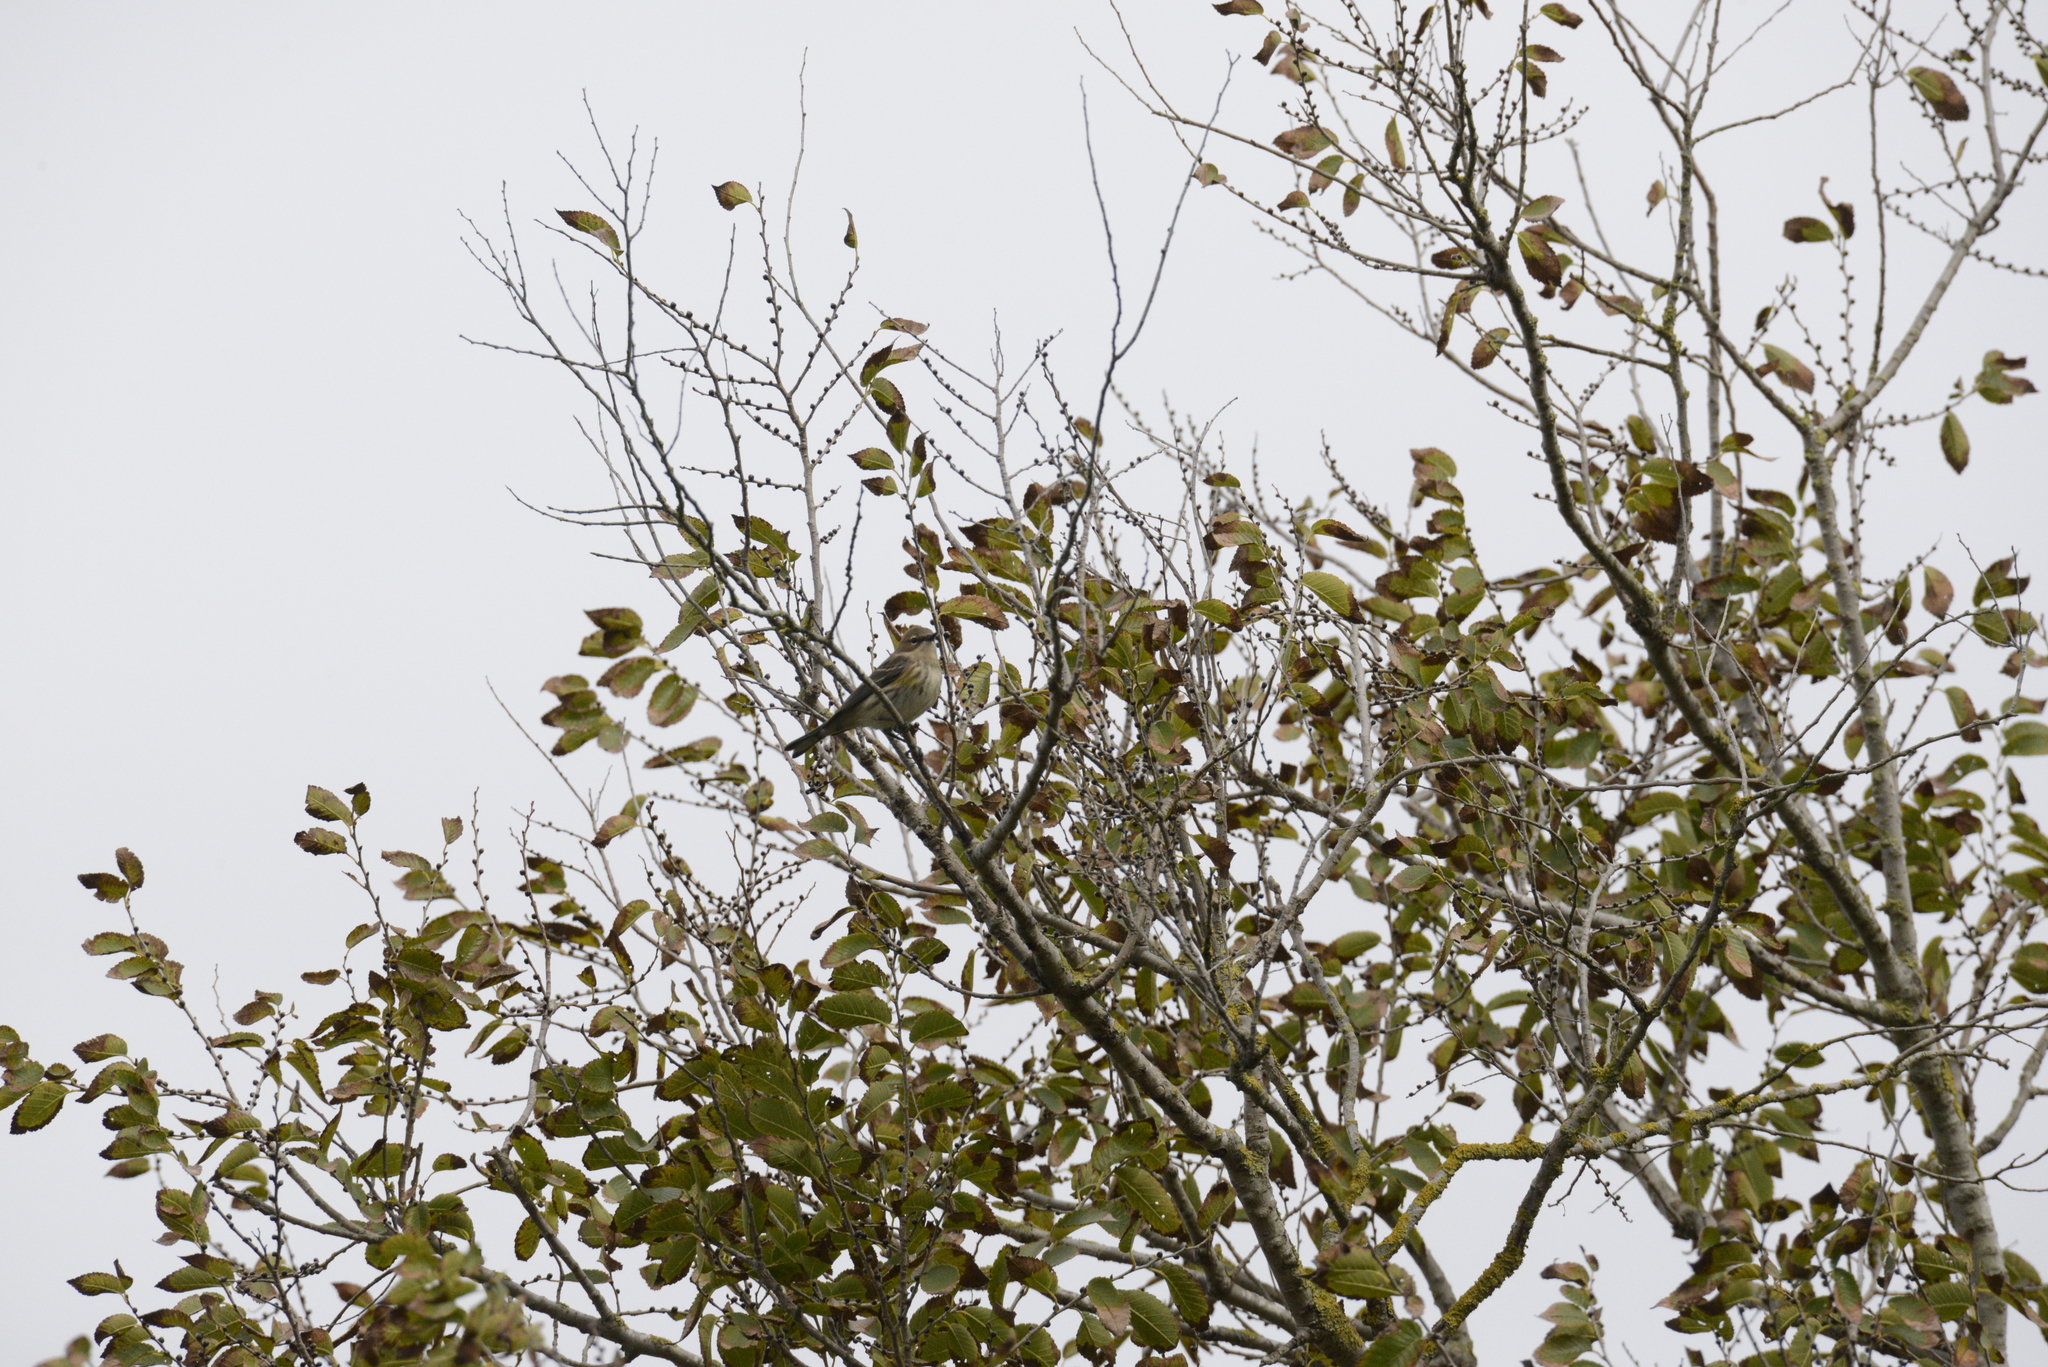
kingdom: Animalia
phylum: Chordata
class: Aves
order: Passeriformes
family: Parulidae
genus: Setophaga
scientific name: Setophaga coronata
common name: Myrtle warbler
